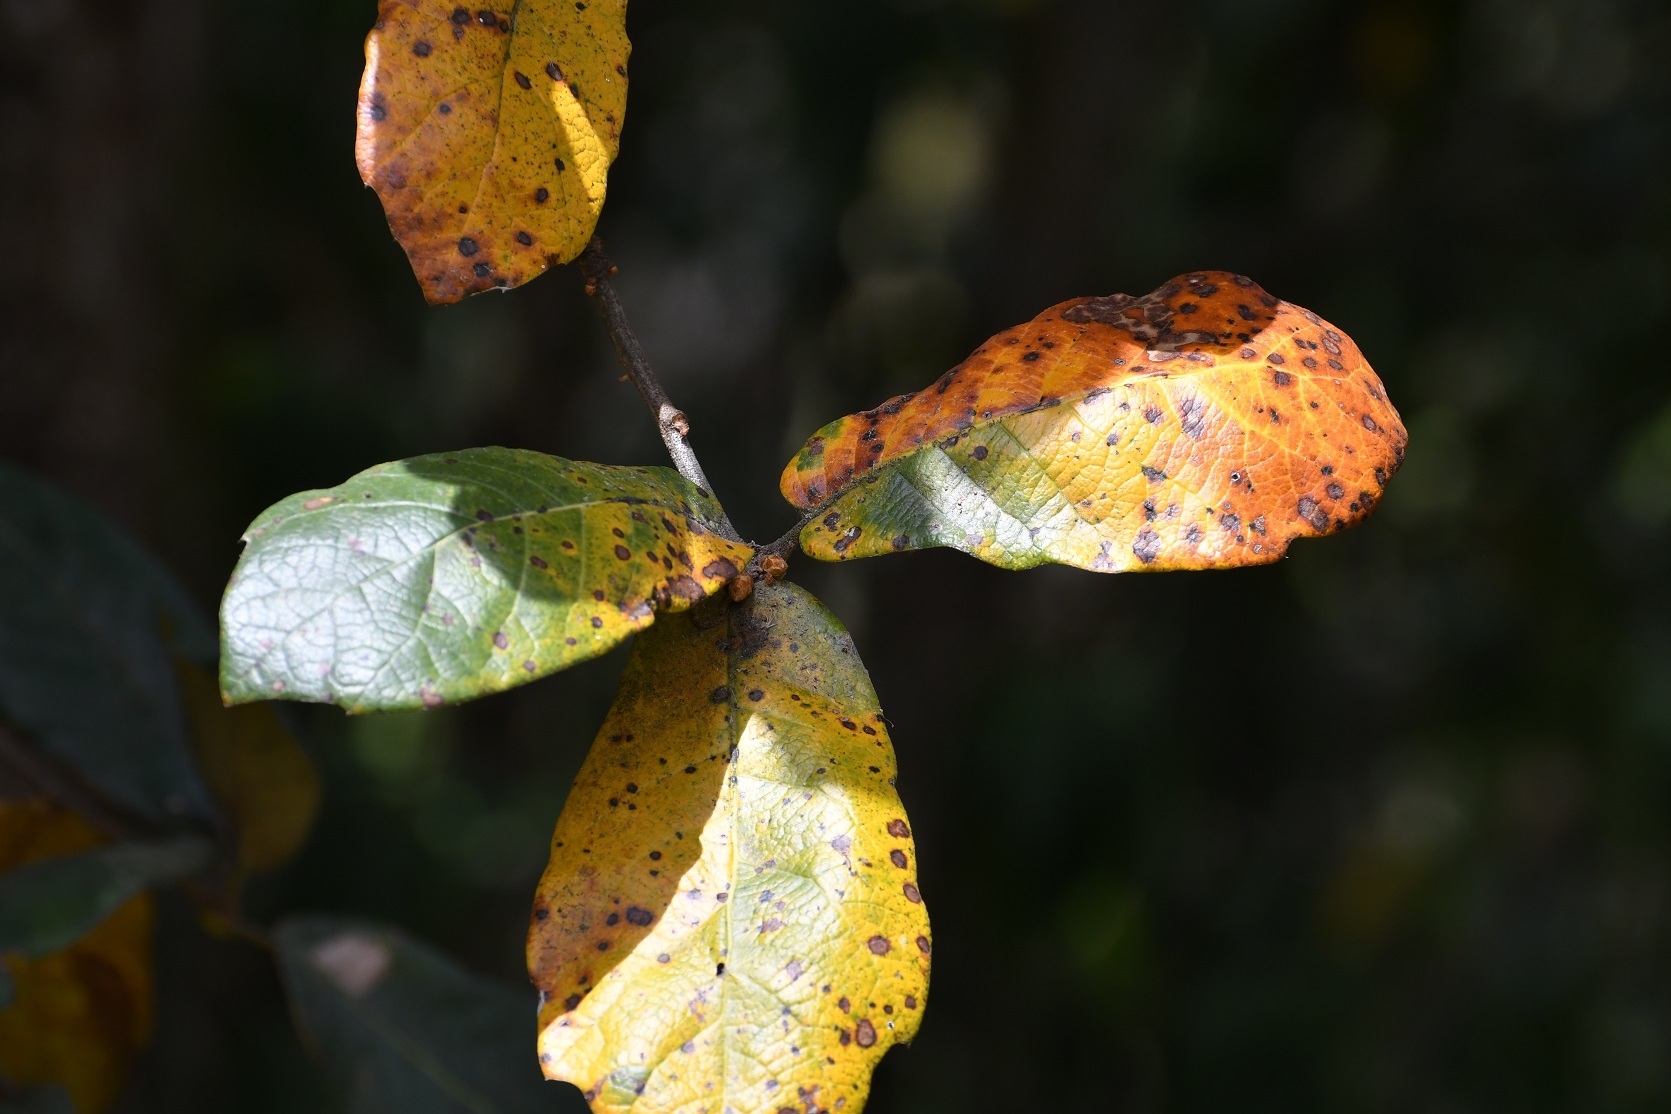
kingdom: Plantae
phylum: Tracheophyta
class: Magnoliopsida
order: Fagales
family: Fagaceae
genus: Quercus
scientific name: Quercus crassifolia
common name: Leather leaf mexican oak
